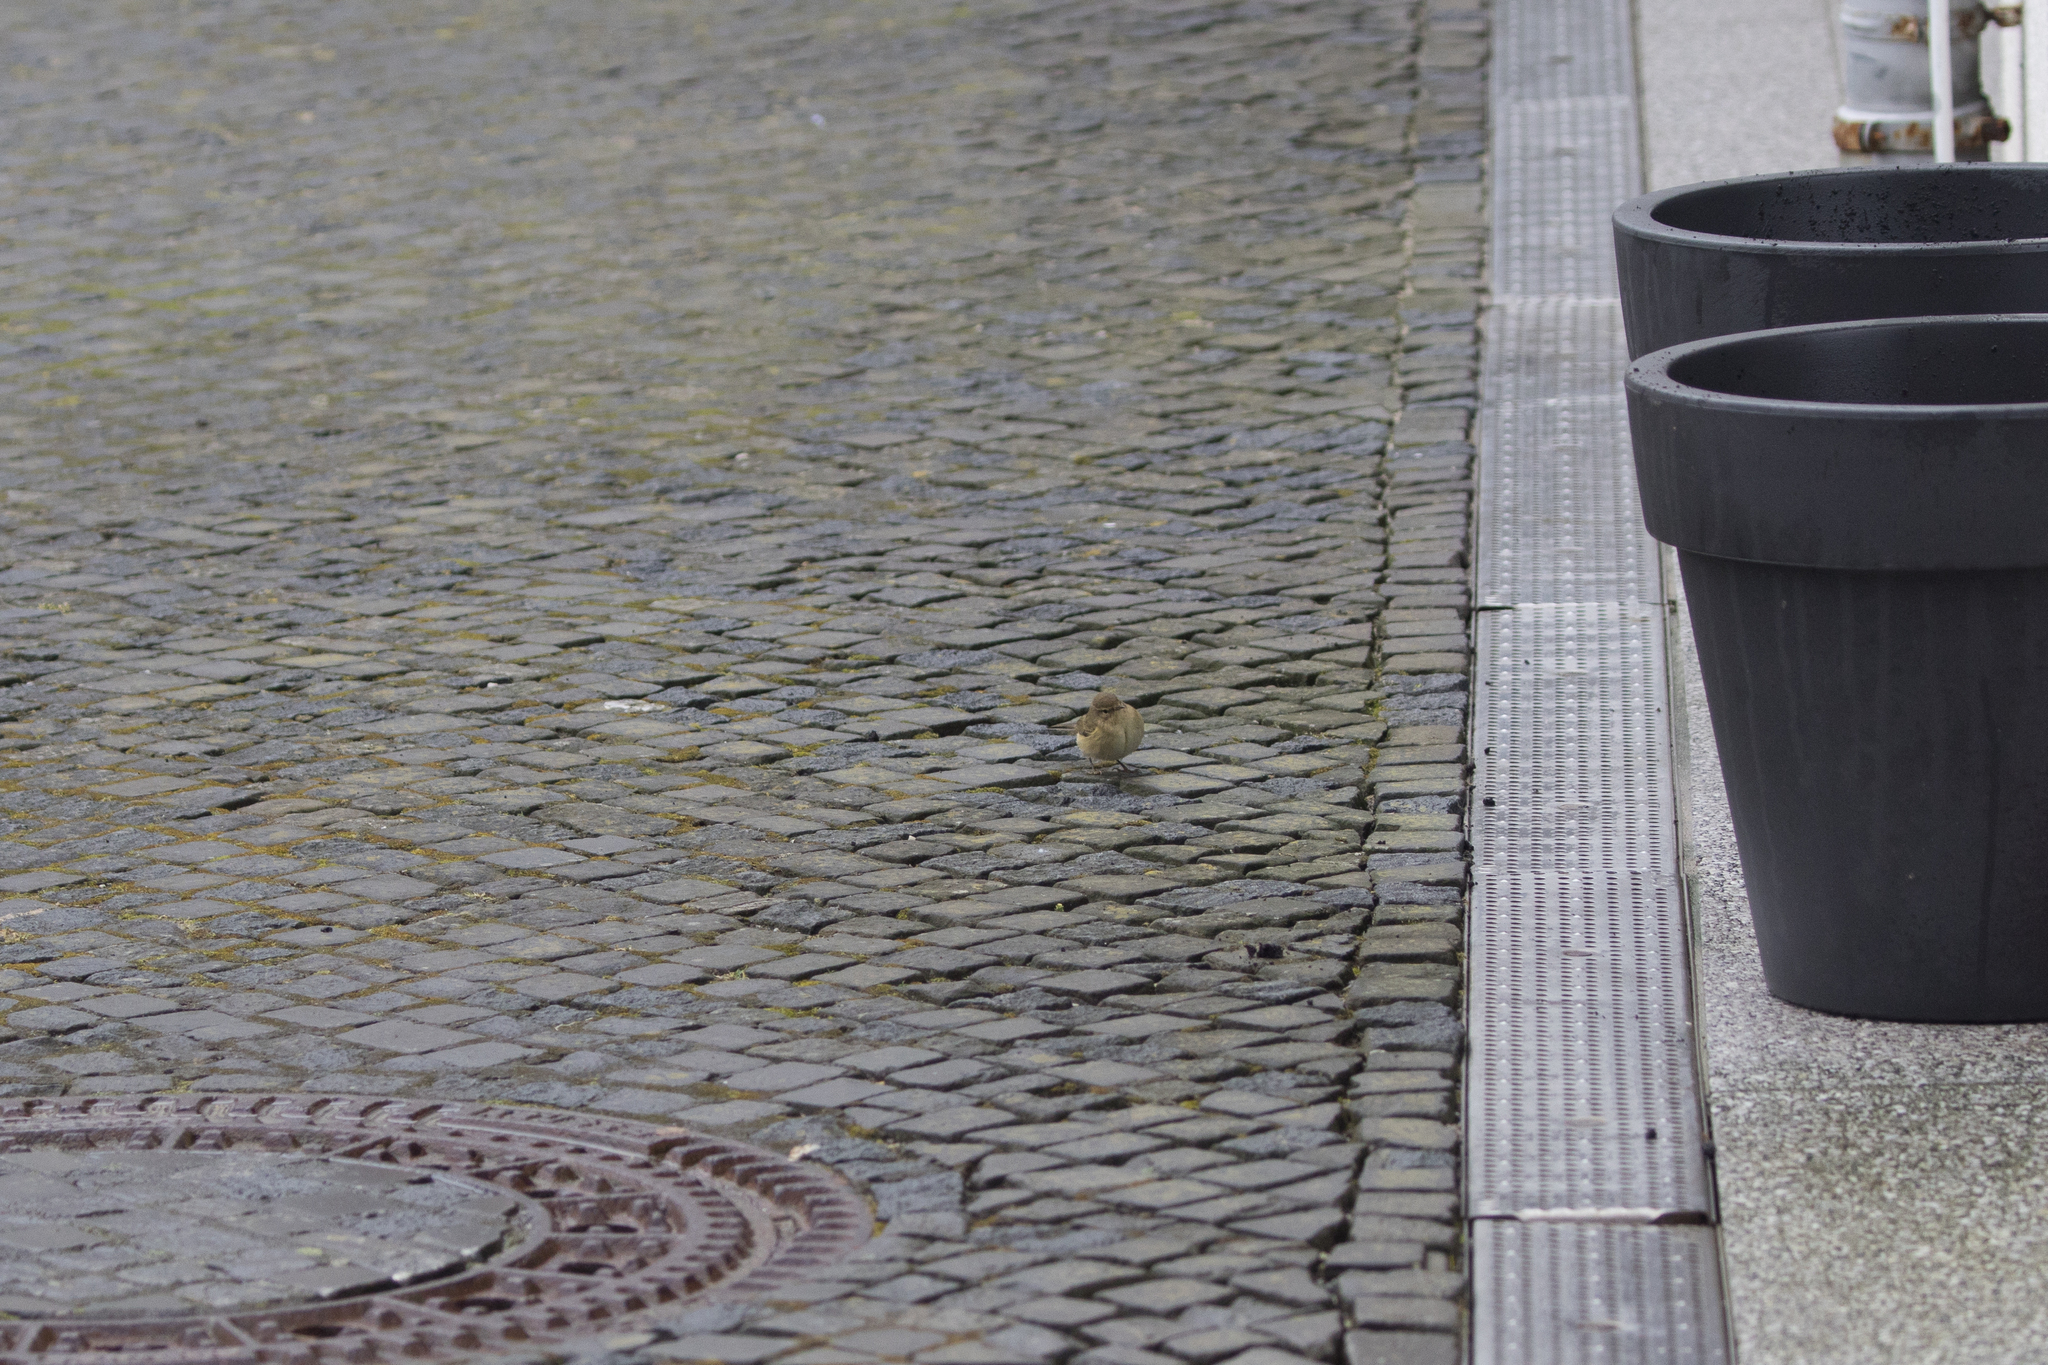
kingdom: Animalia
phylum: Chordata
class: Aves
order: Passeriformes
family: Phylloscopidae
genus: Phylloscopus
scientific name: Phylloscopus collybita
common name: Common chiffchaff
